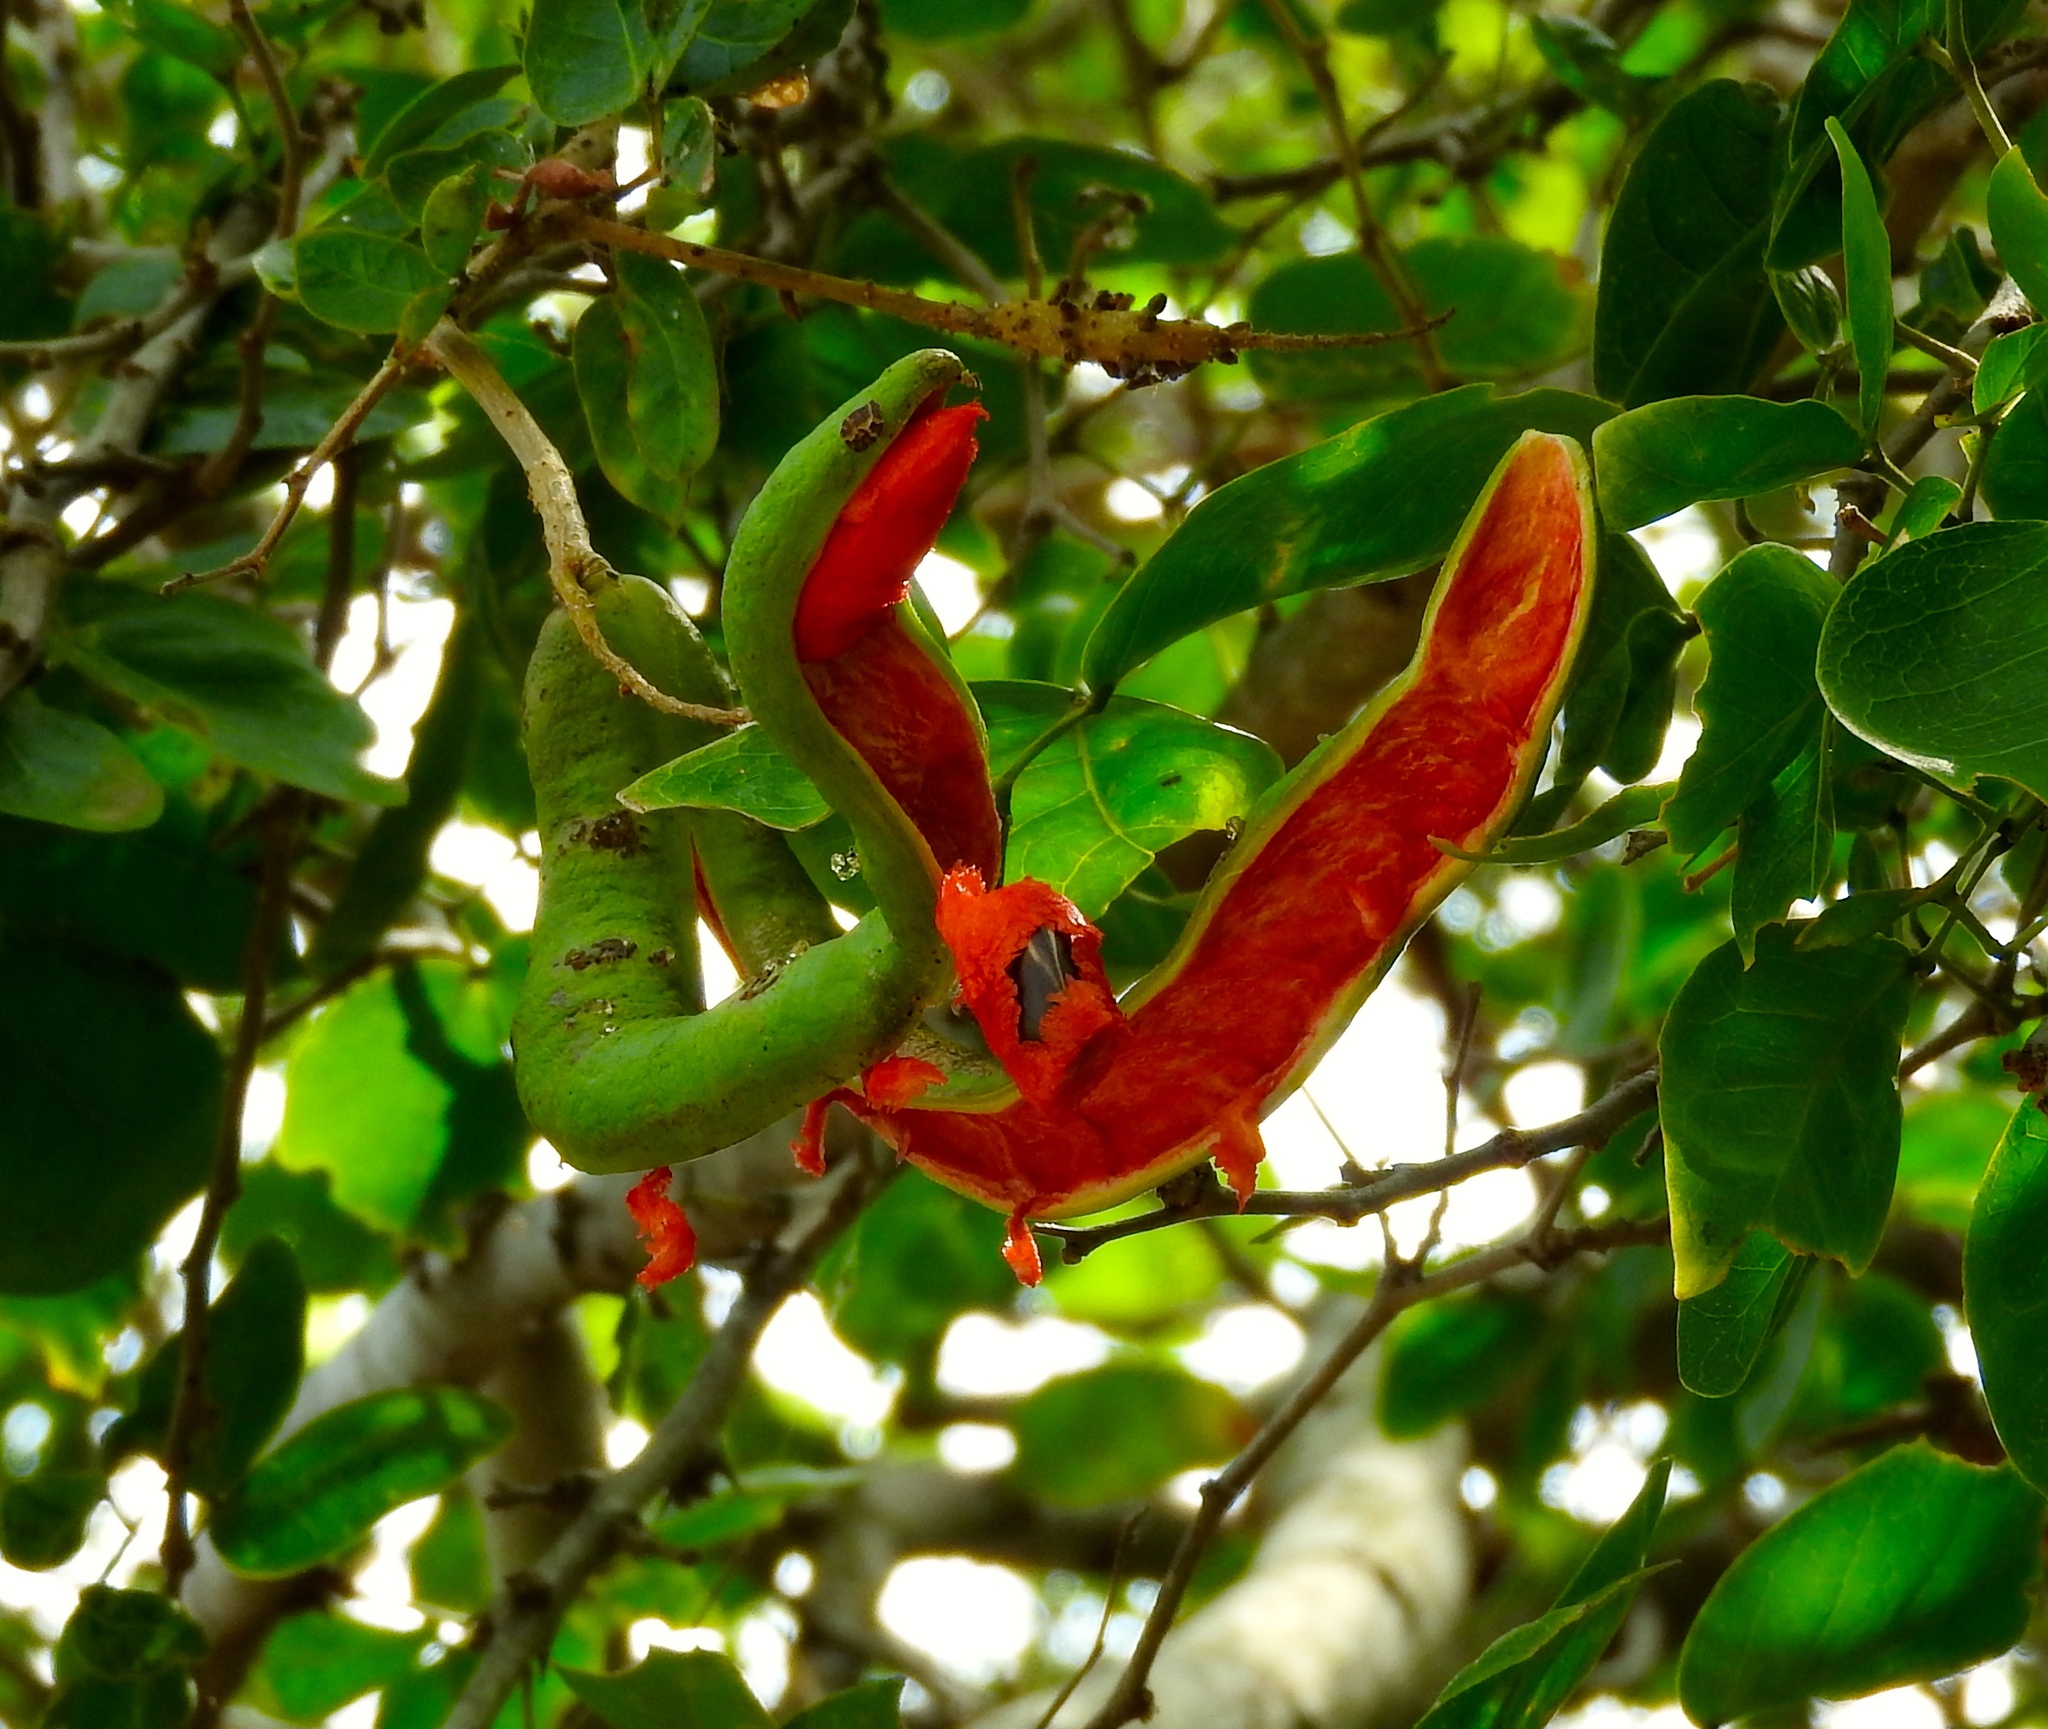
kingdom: Plantae
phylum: Tracheophyta
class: Magnoliopsida
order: Fabales
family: Fabaceae
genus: Pithecellobium
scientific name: Pithecellobium lanceolatum
